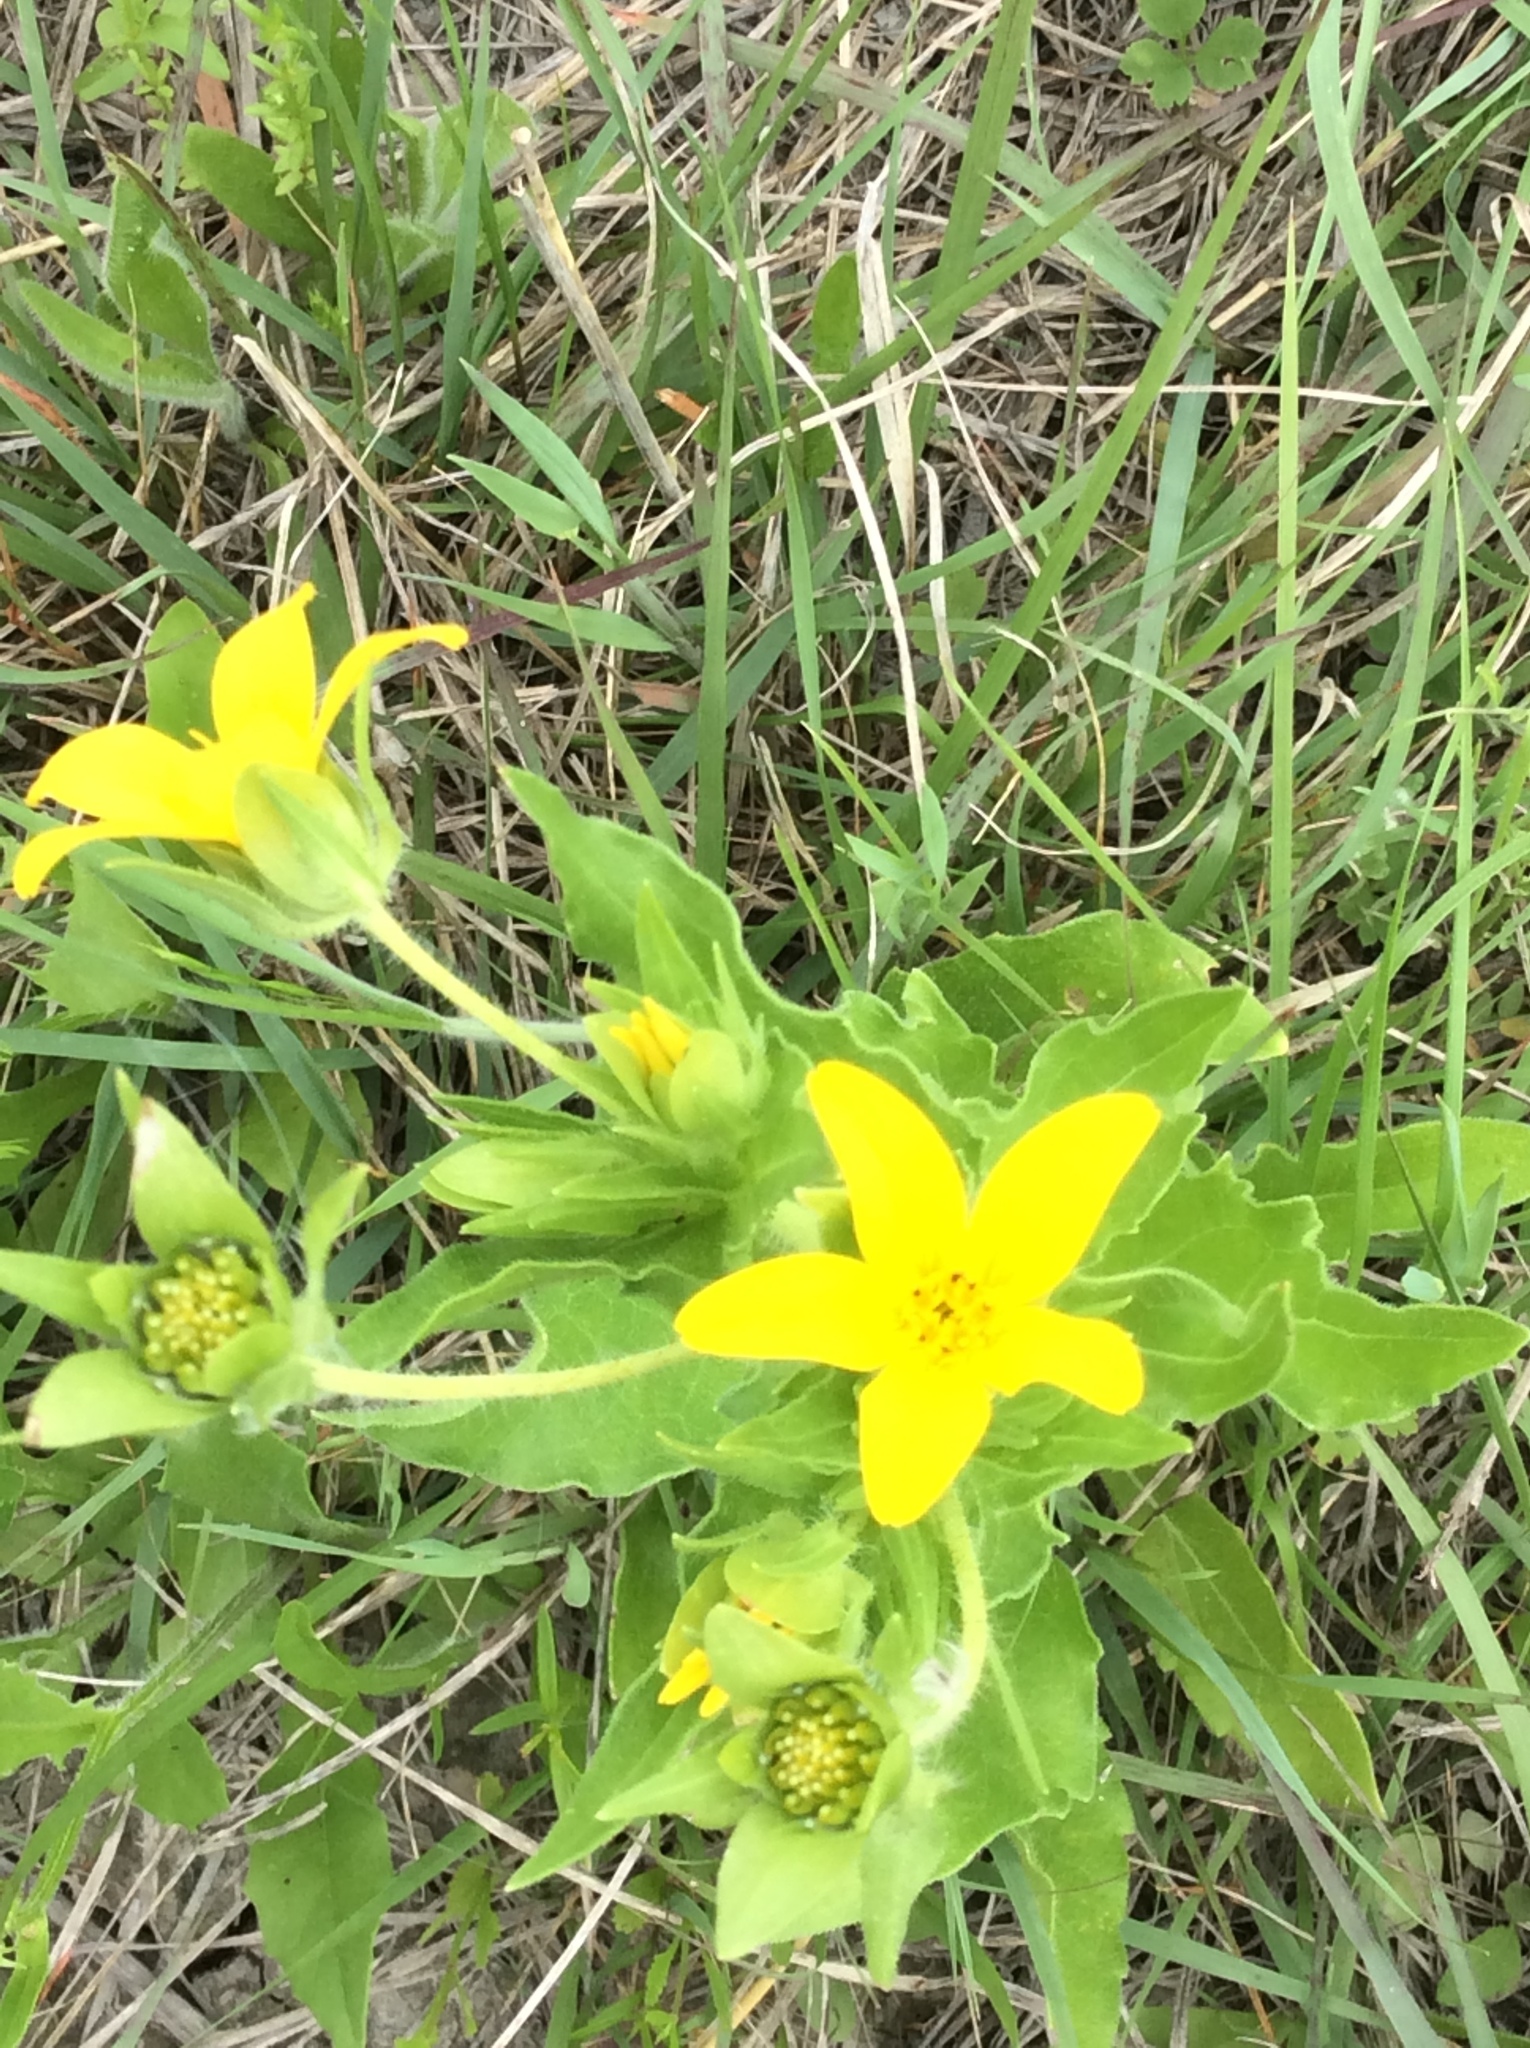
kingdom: Plantae
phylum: Tracheophyta
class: Magnoliopsida
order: Asterales
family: Asteraceae
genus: Lindheimera
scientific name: Lindheimera texana
